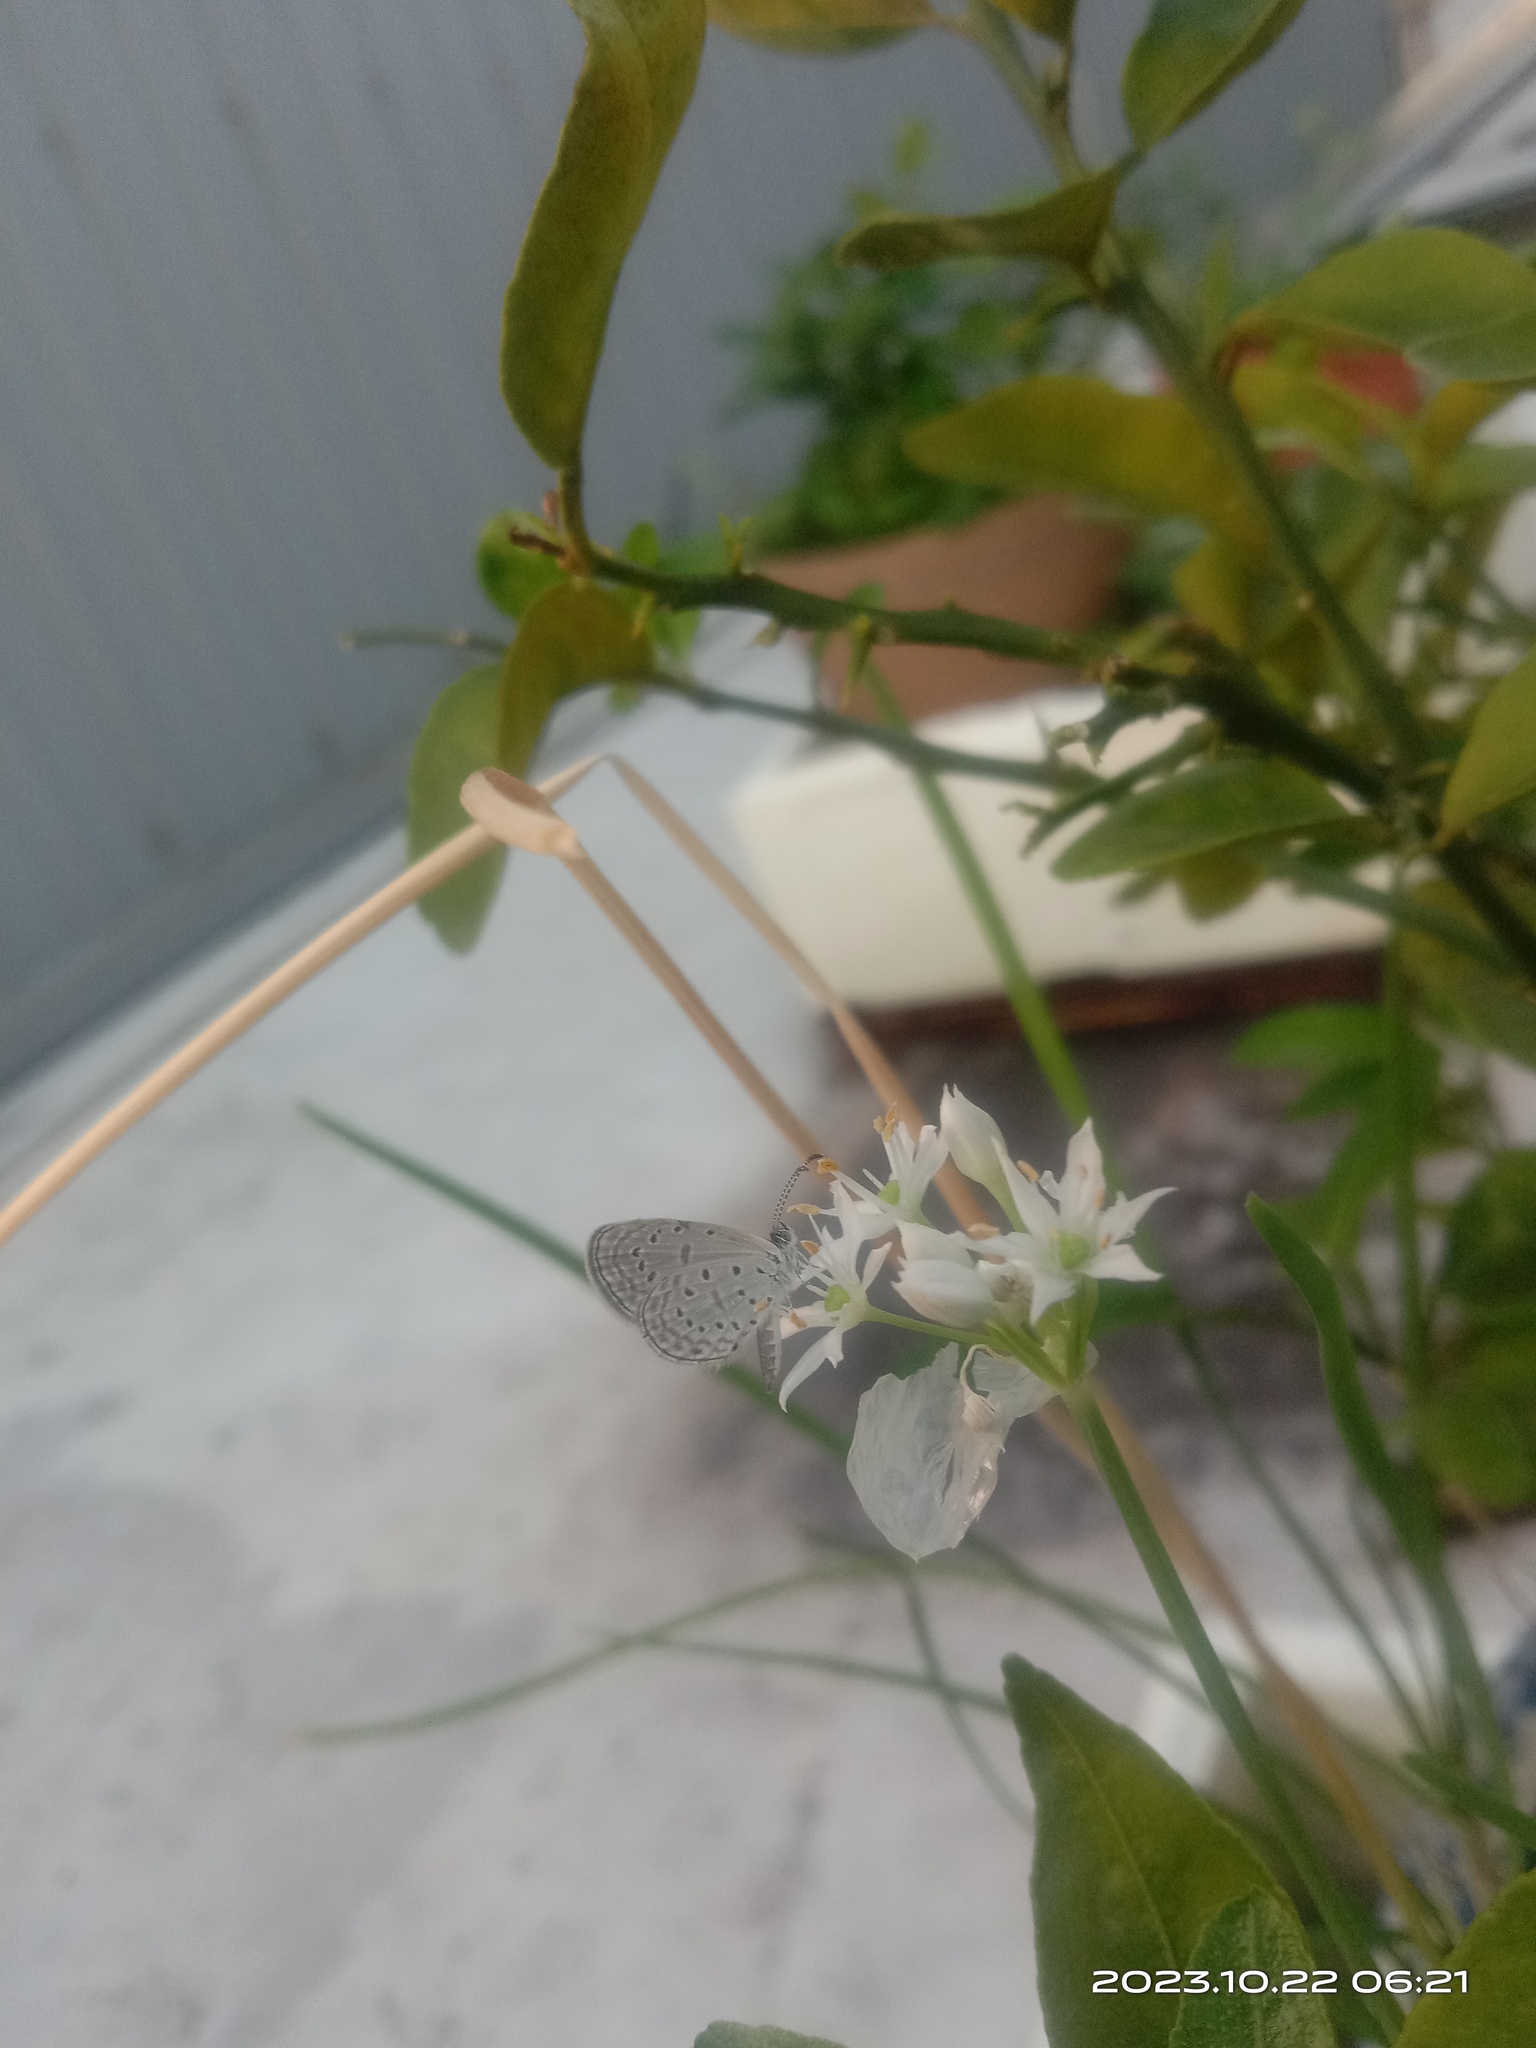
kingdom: Animalia
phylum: Arthropoda
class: Insecta
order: Lepidoptera
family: Lycaenidae
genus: Zizula
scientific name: Zizula hylax
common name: Gaika blue
